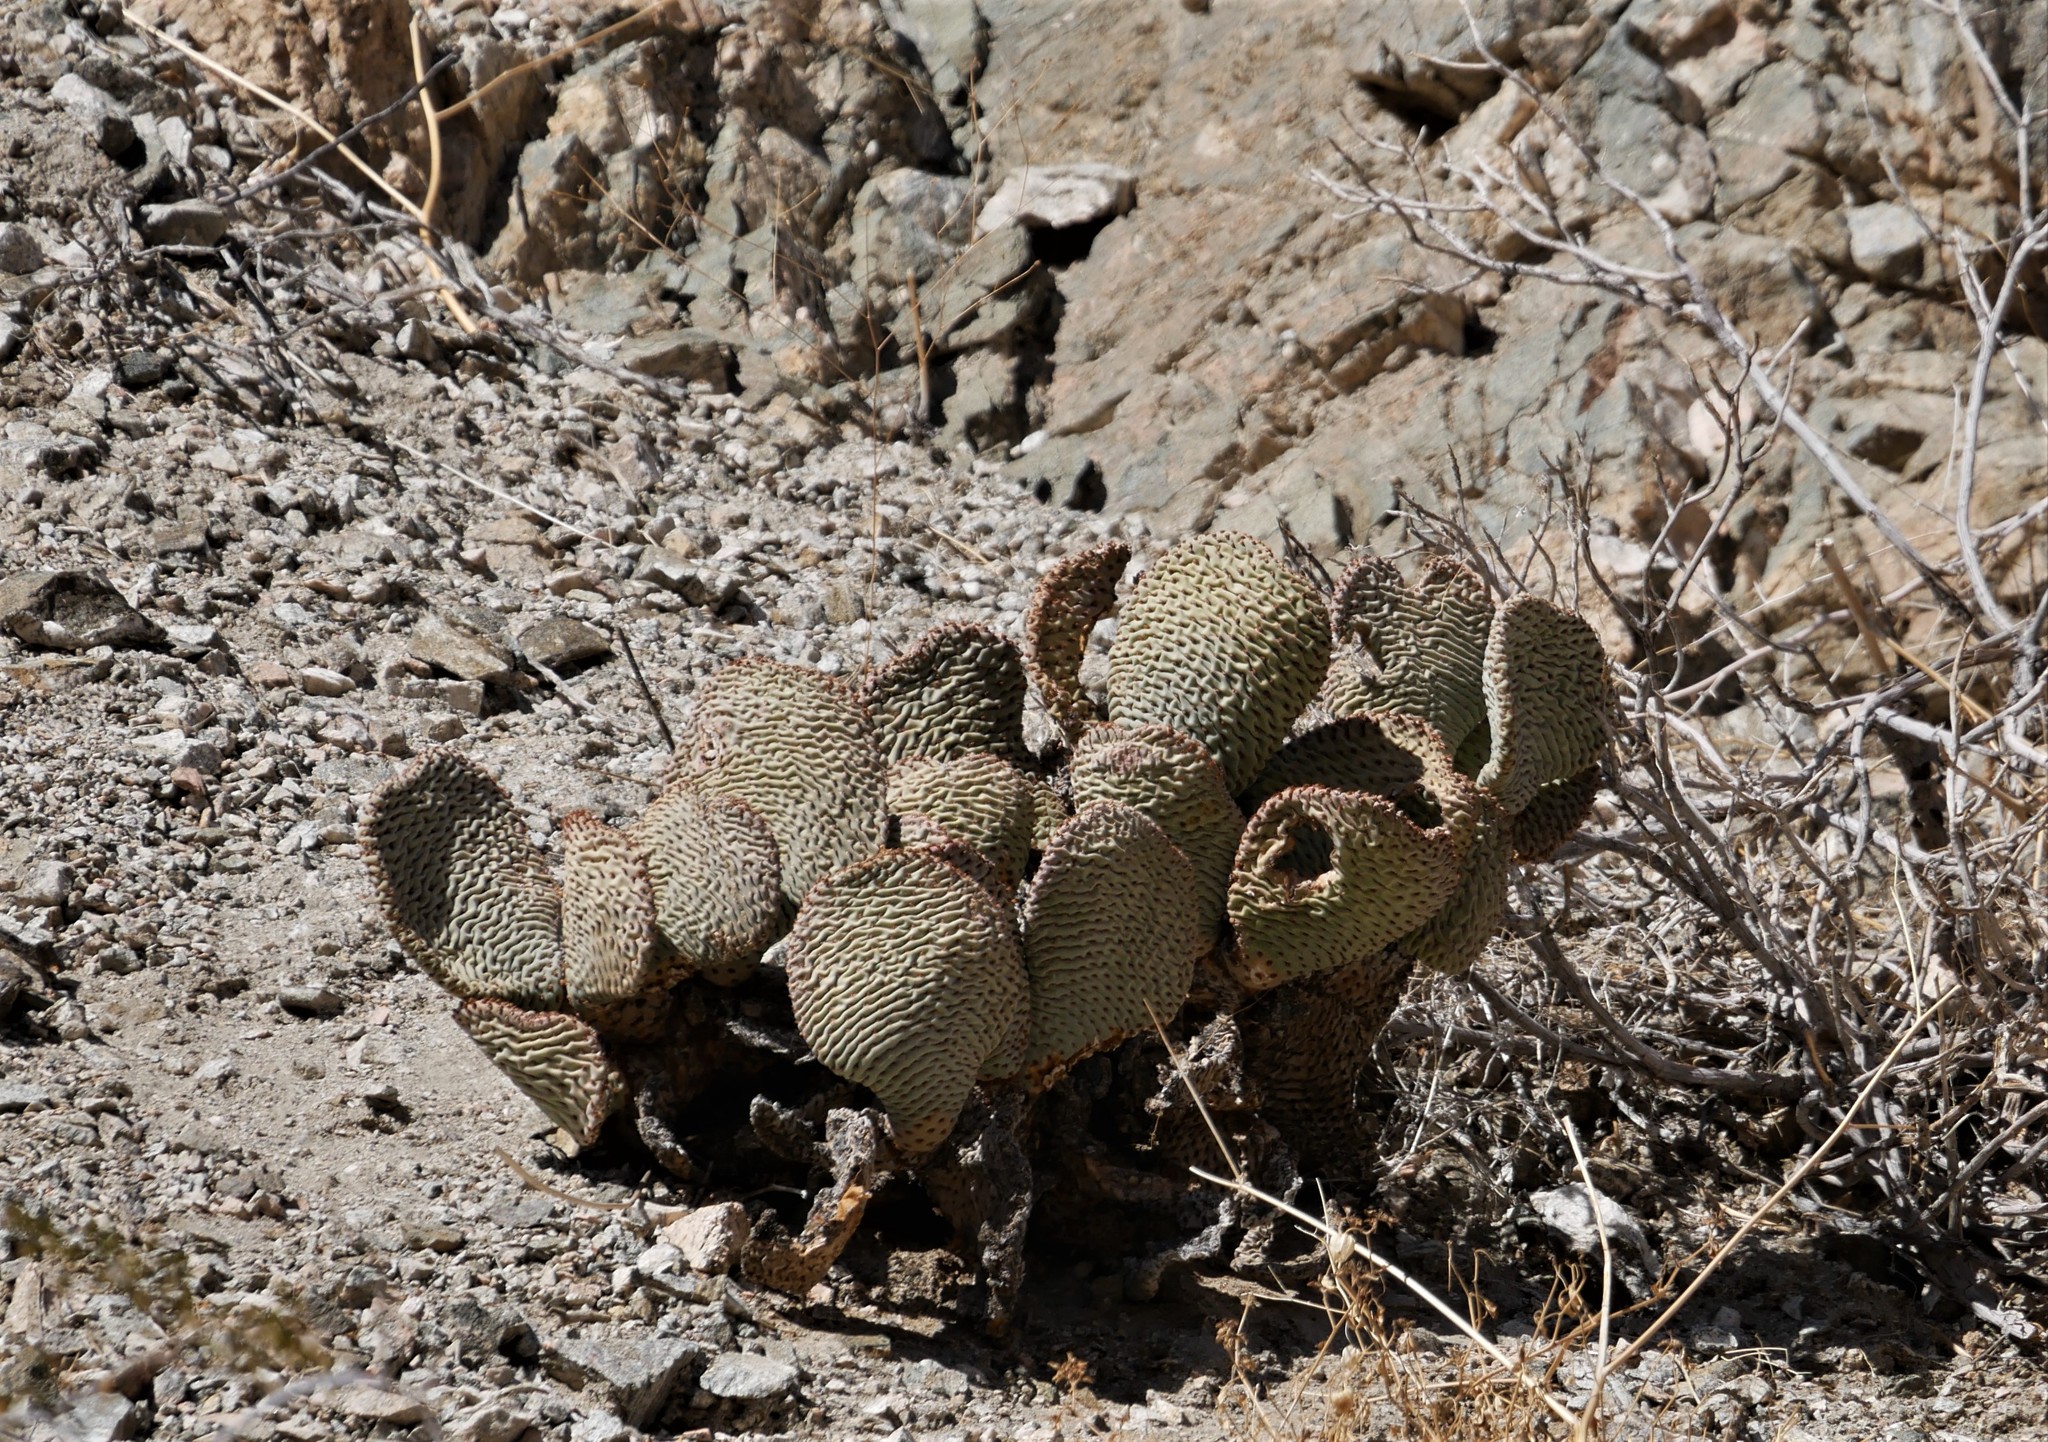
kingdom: Plantae
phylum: Tracheophyta
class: Magnoliopsida
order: Caryophyllales
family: Cactaceae
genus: Opuntia
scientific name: Opuntia basilaris
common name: Beavertail prickly-pear
